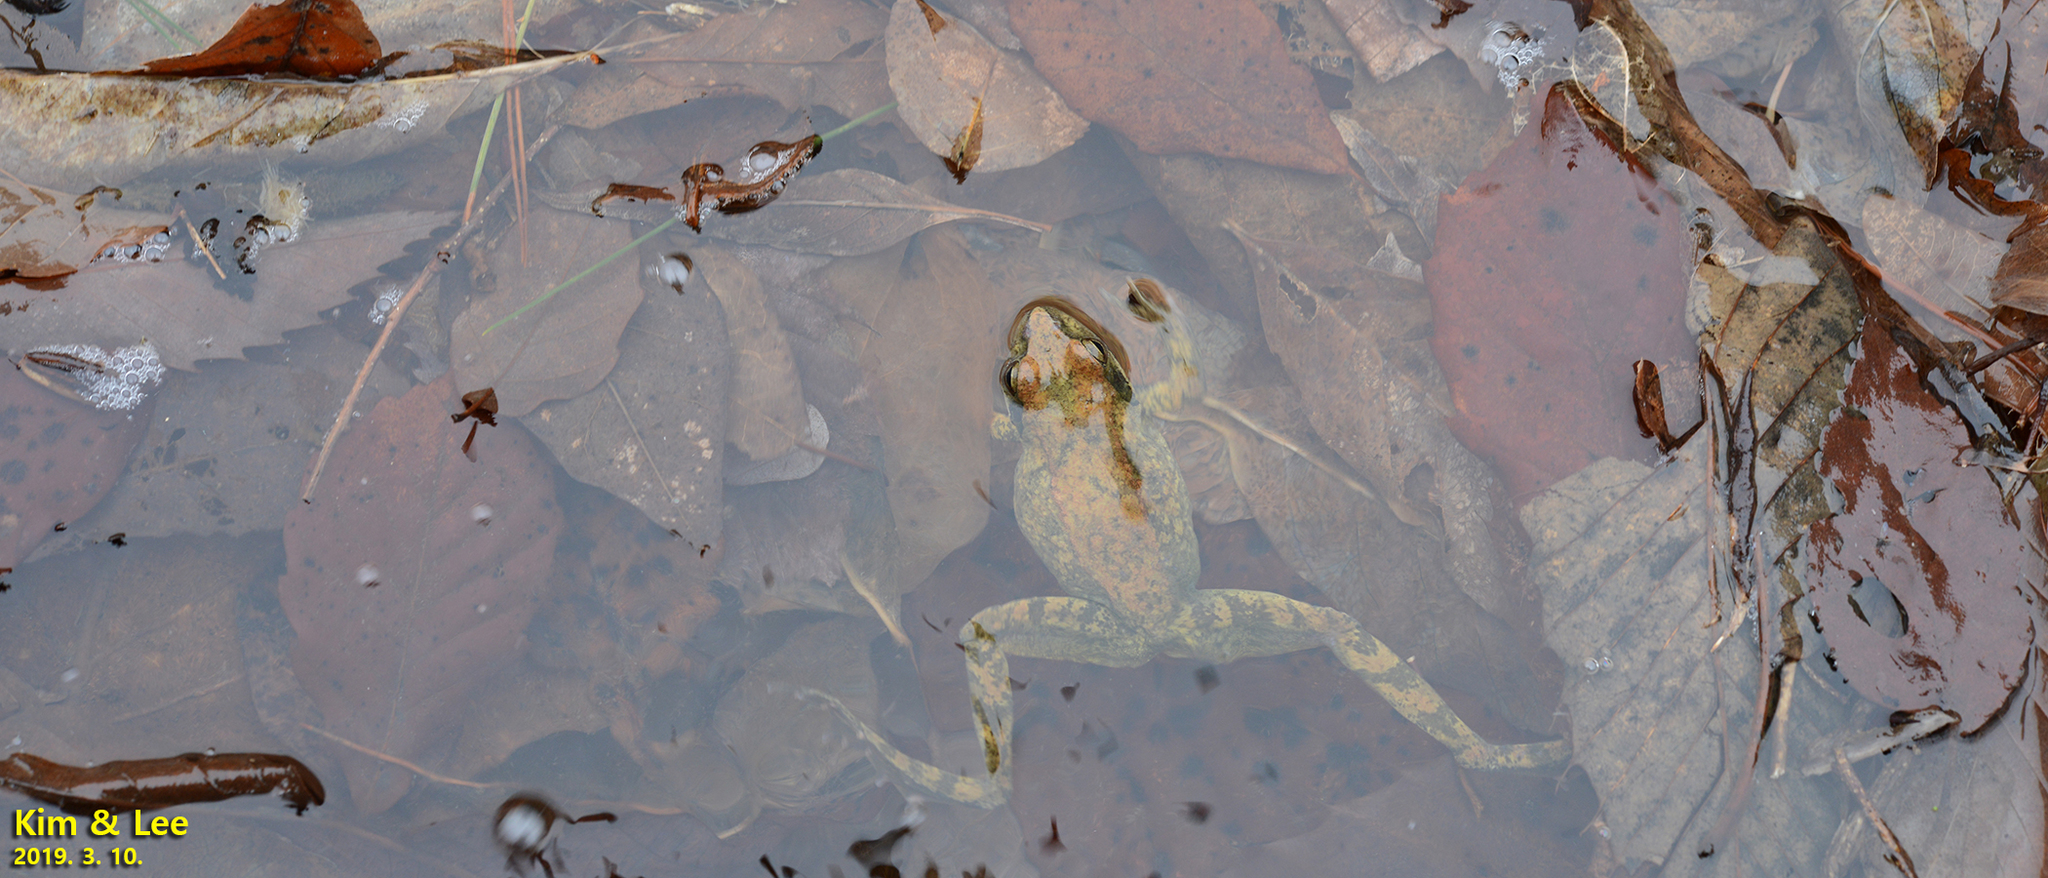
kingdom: Animalia
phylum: Chordata
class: Amphibia
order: Anura
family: Ranidae
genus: Rana
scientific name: Rana huanrenensis
